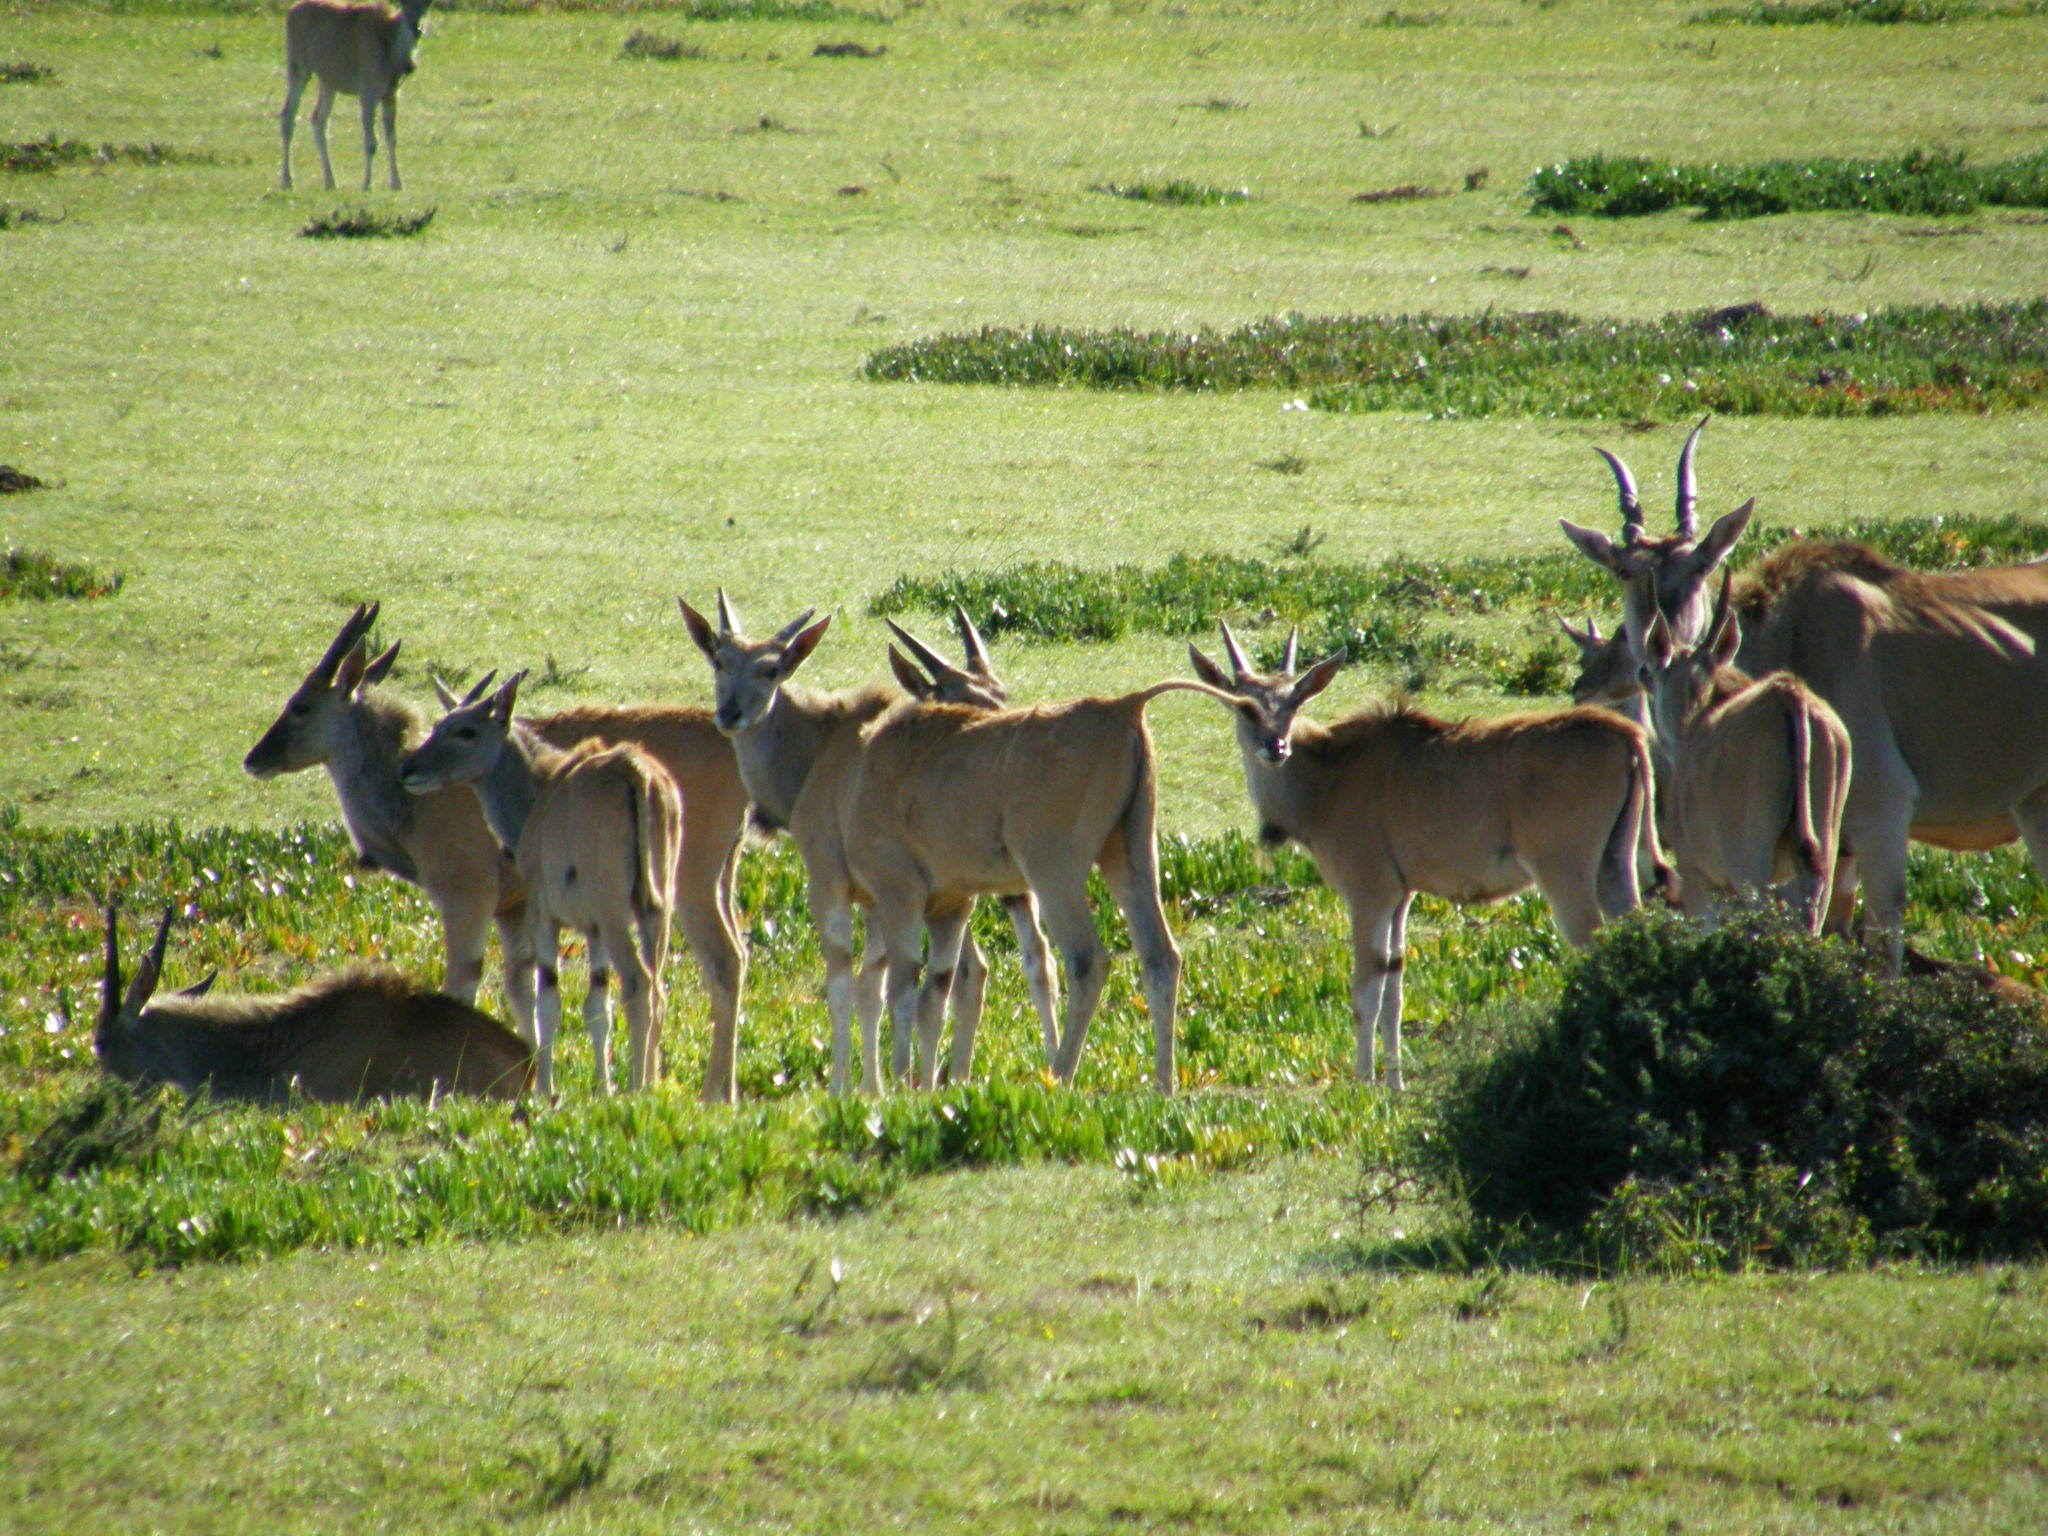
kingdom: Animalia
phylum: Chordata
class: Mammalia
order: Artiodactyla
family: Bovidae
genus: Taurotragus
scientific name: Taurotragus oryx
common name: Common eland
